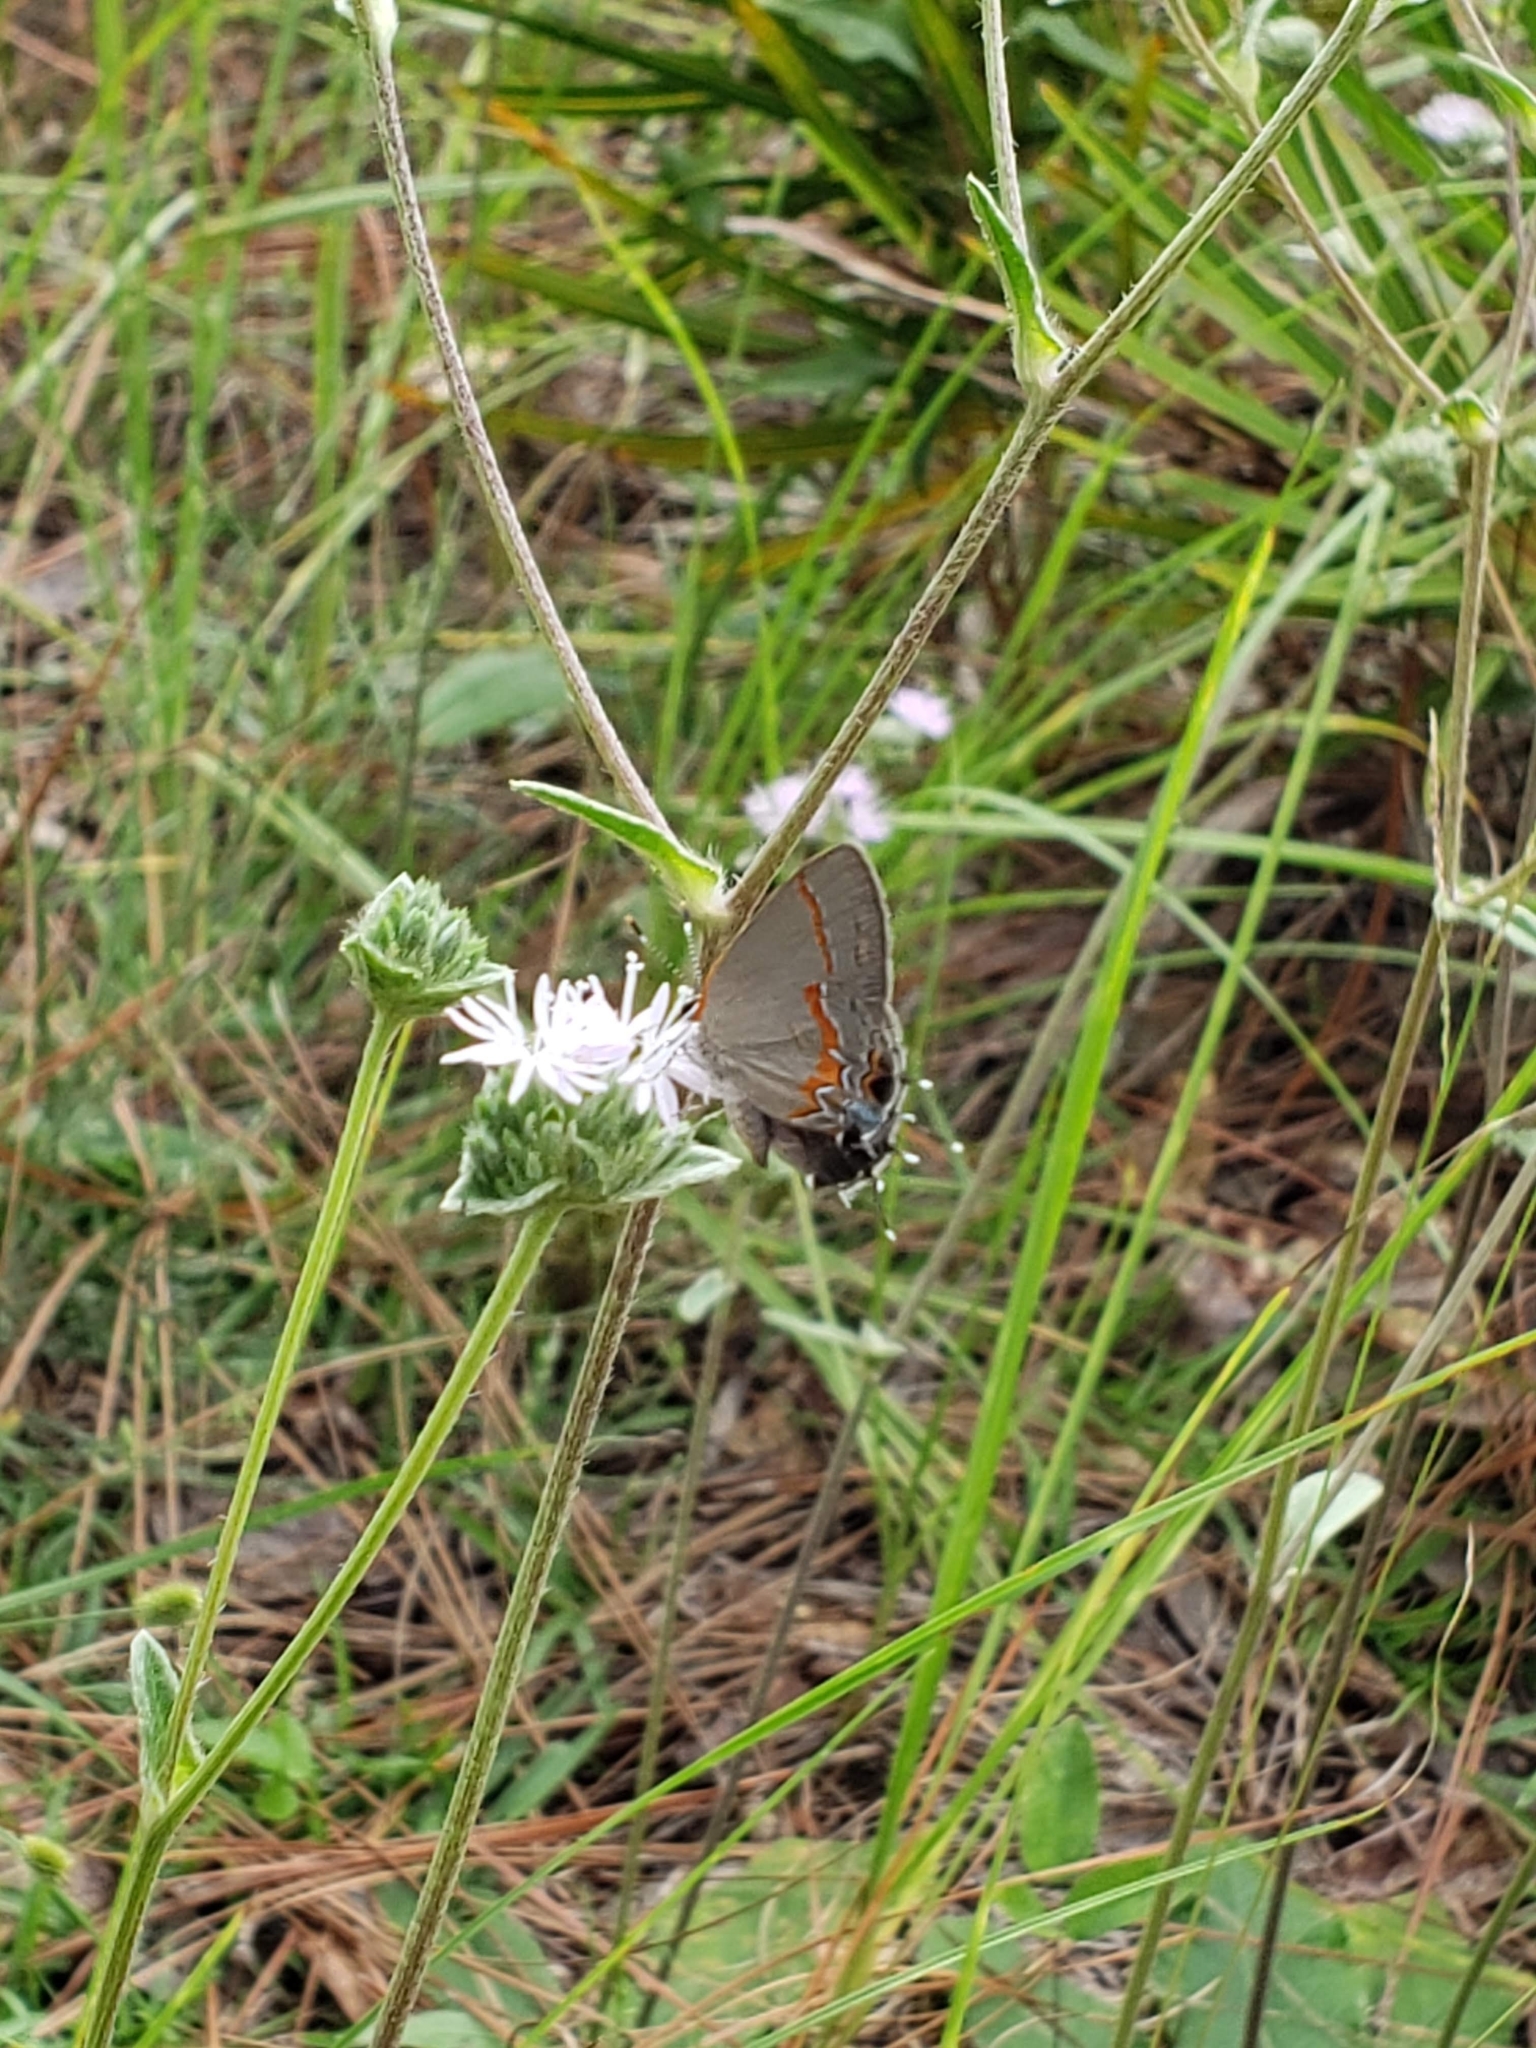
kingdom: Animalia
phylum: Arthropoda
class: Insecta
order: Lepidoptera
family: Lycaenidae
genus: Calycopis
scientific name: Calycopis cecrops
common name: Red-banded hairstreak
